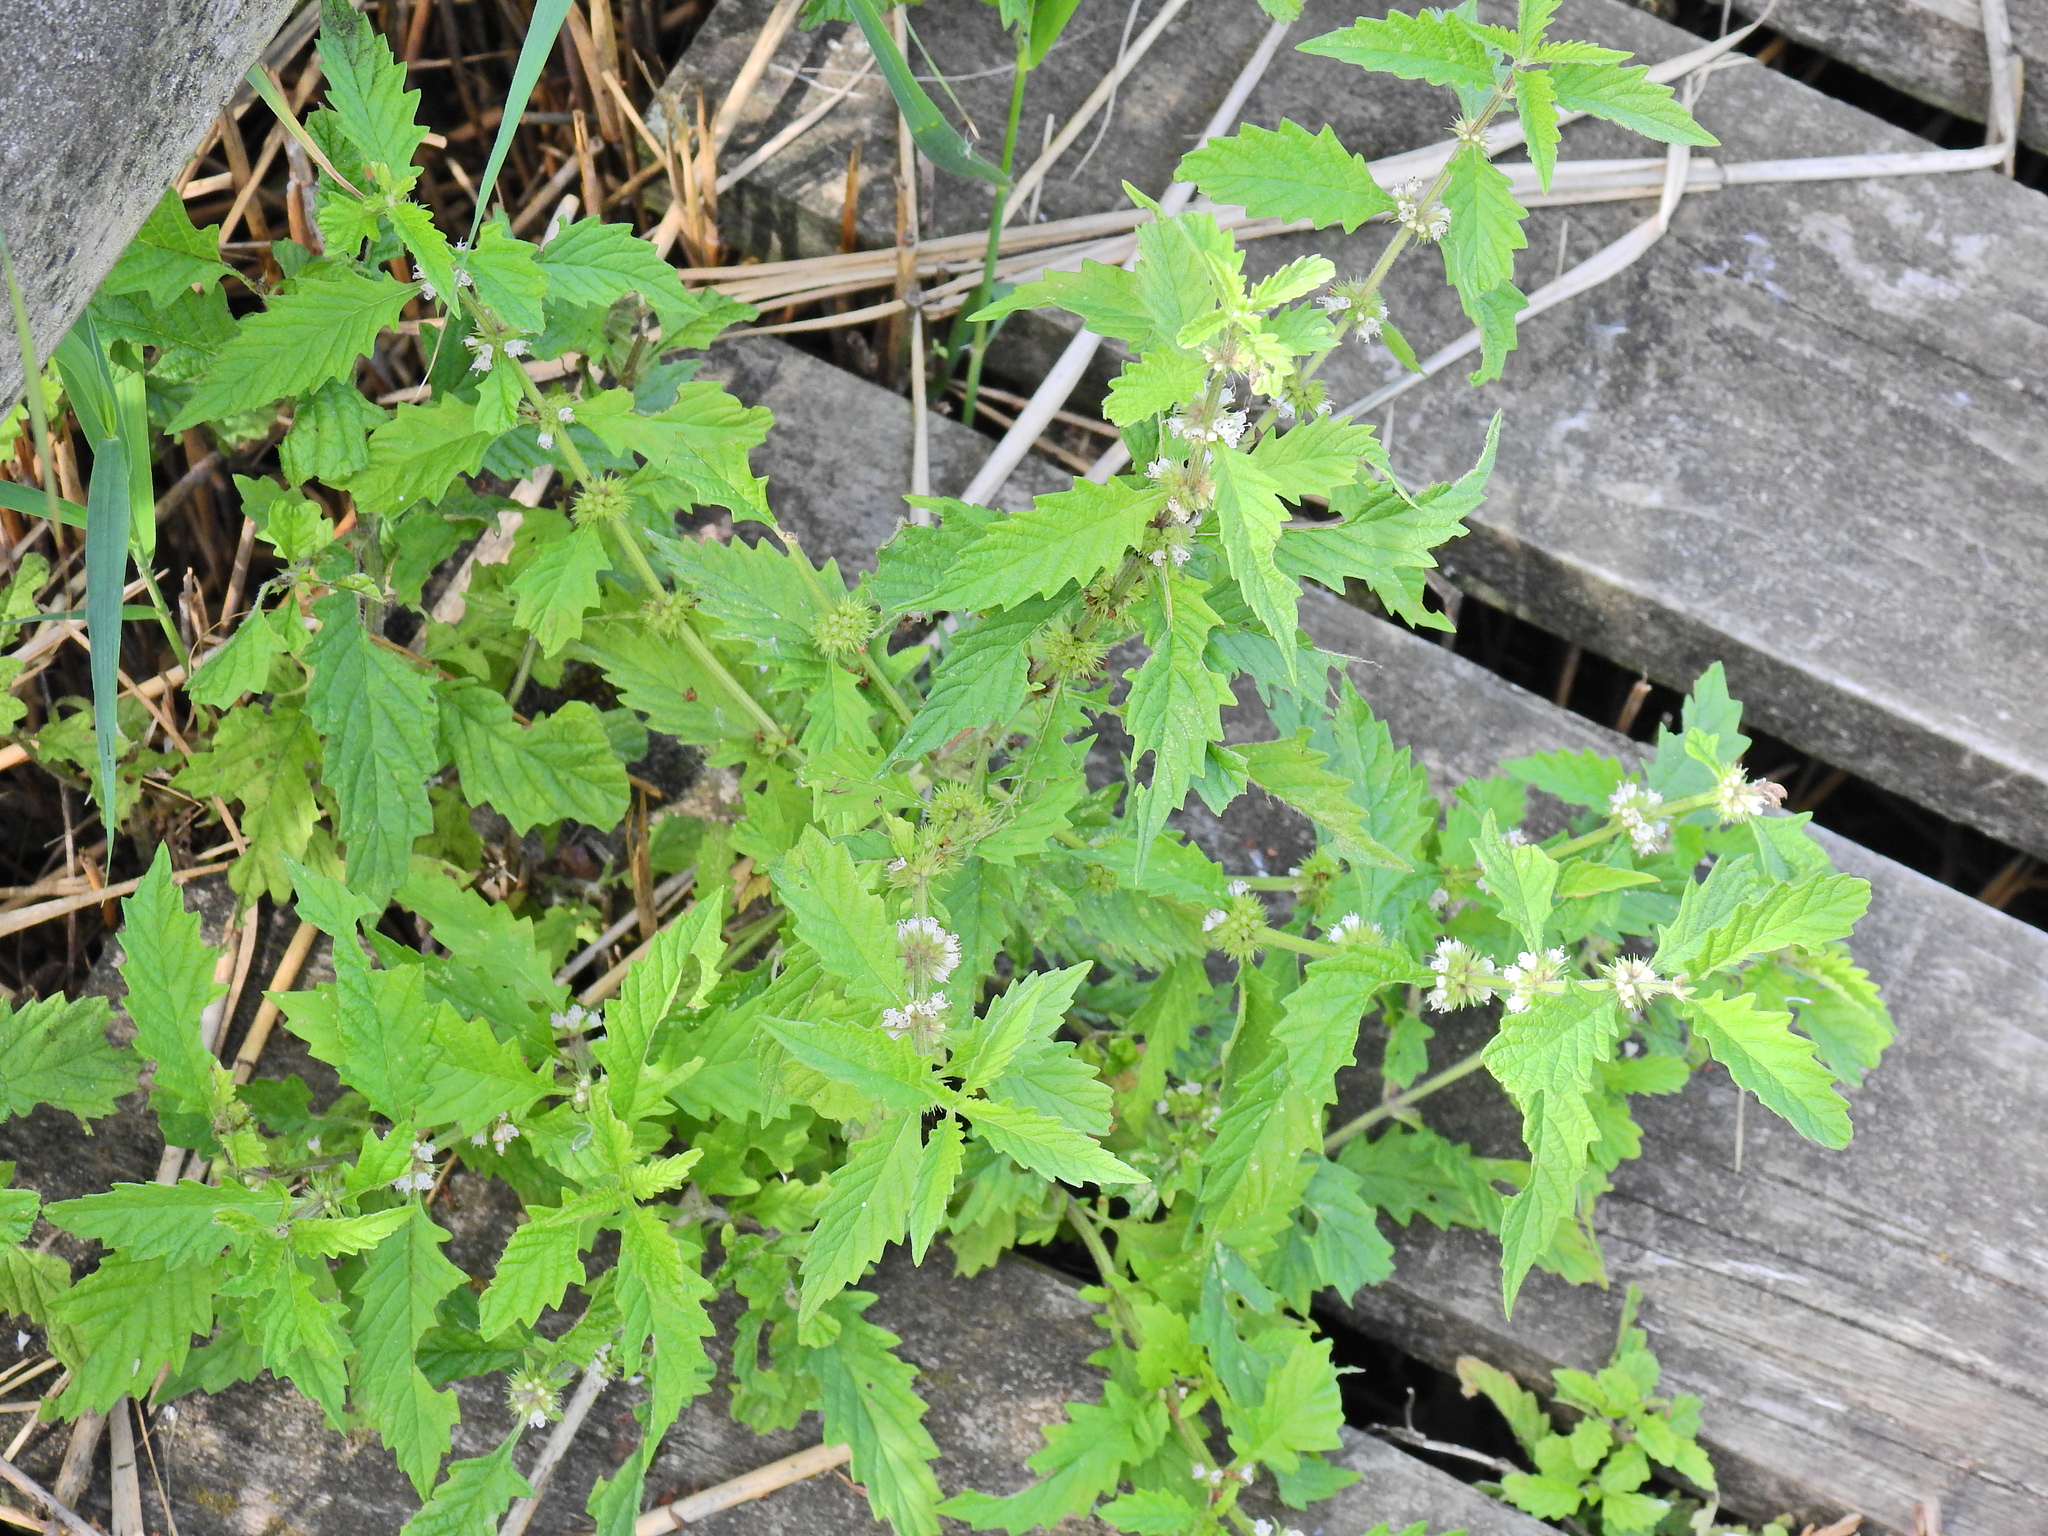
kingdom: Plantae
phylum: Tracheophyta
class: Magnoliopsida
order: Lamiales
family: Lamiaceae
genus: Lycopus
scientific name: Lycopus europaeus
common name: European bugleweed
